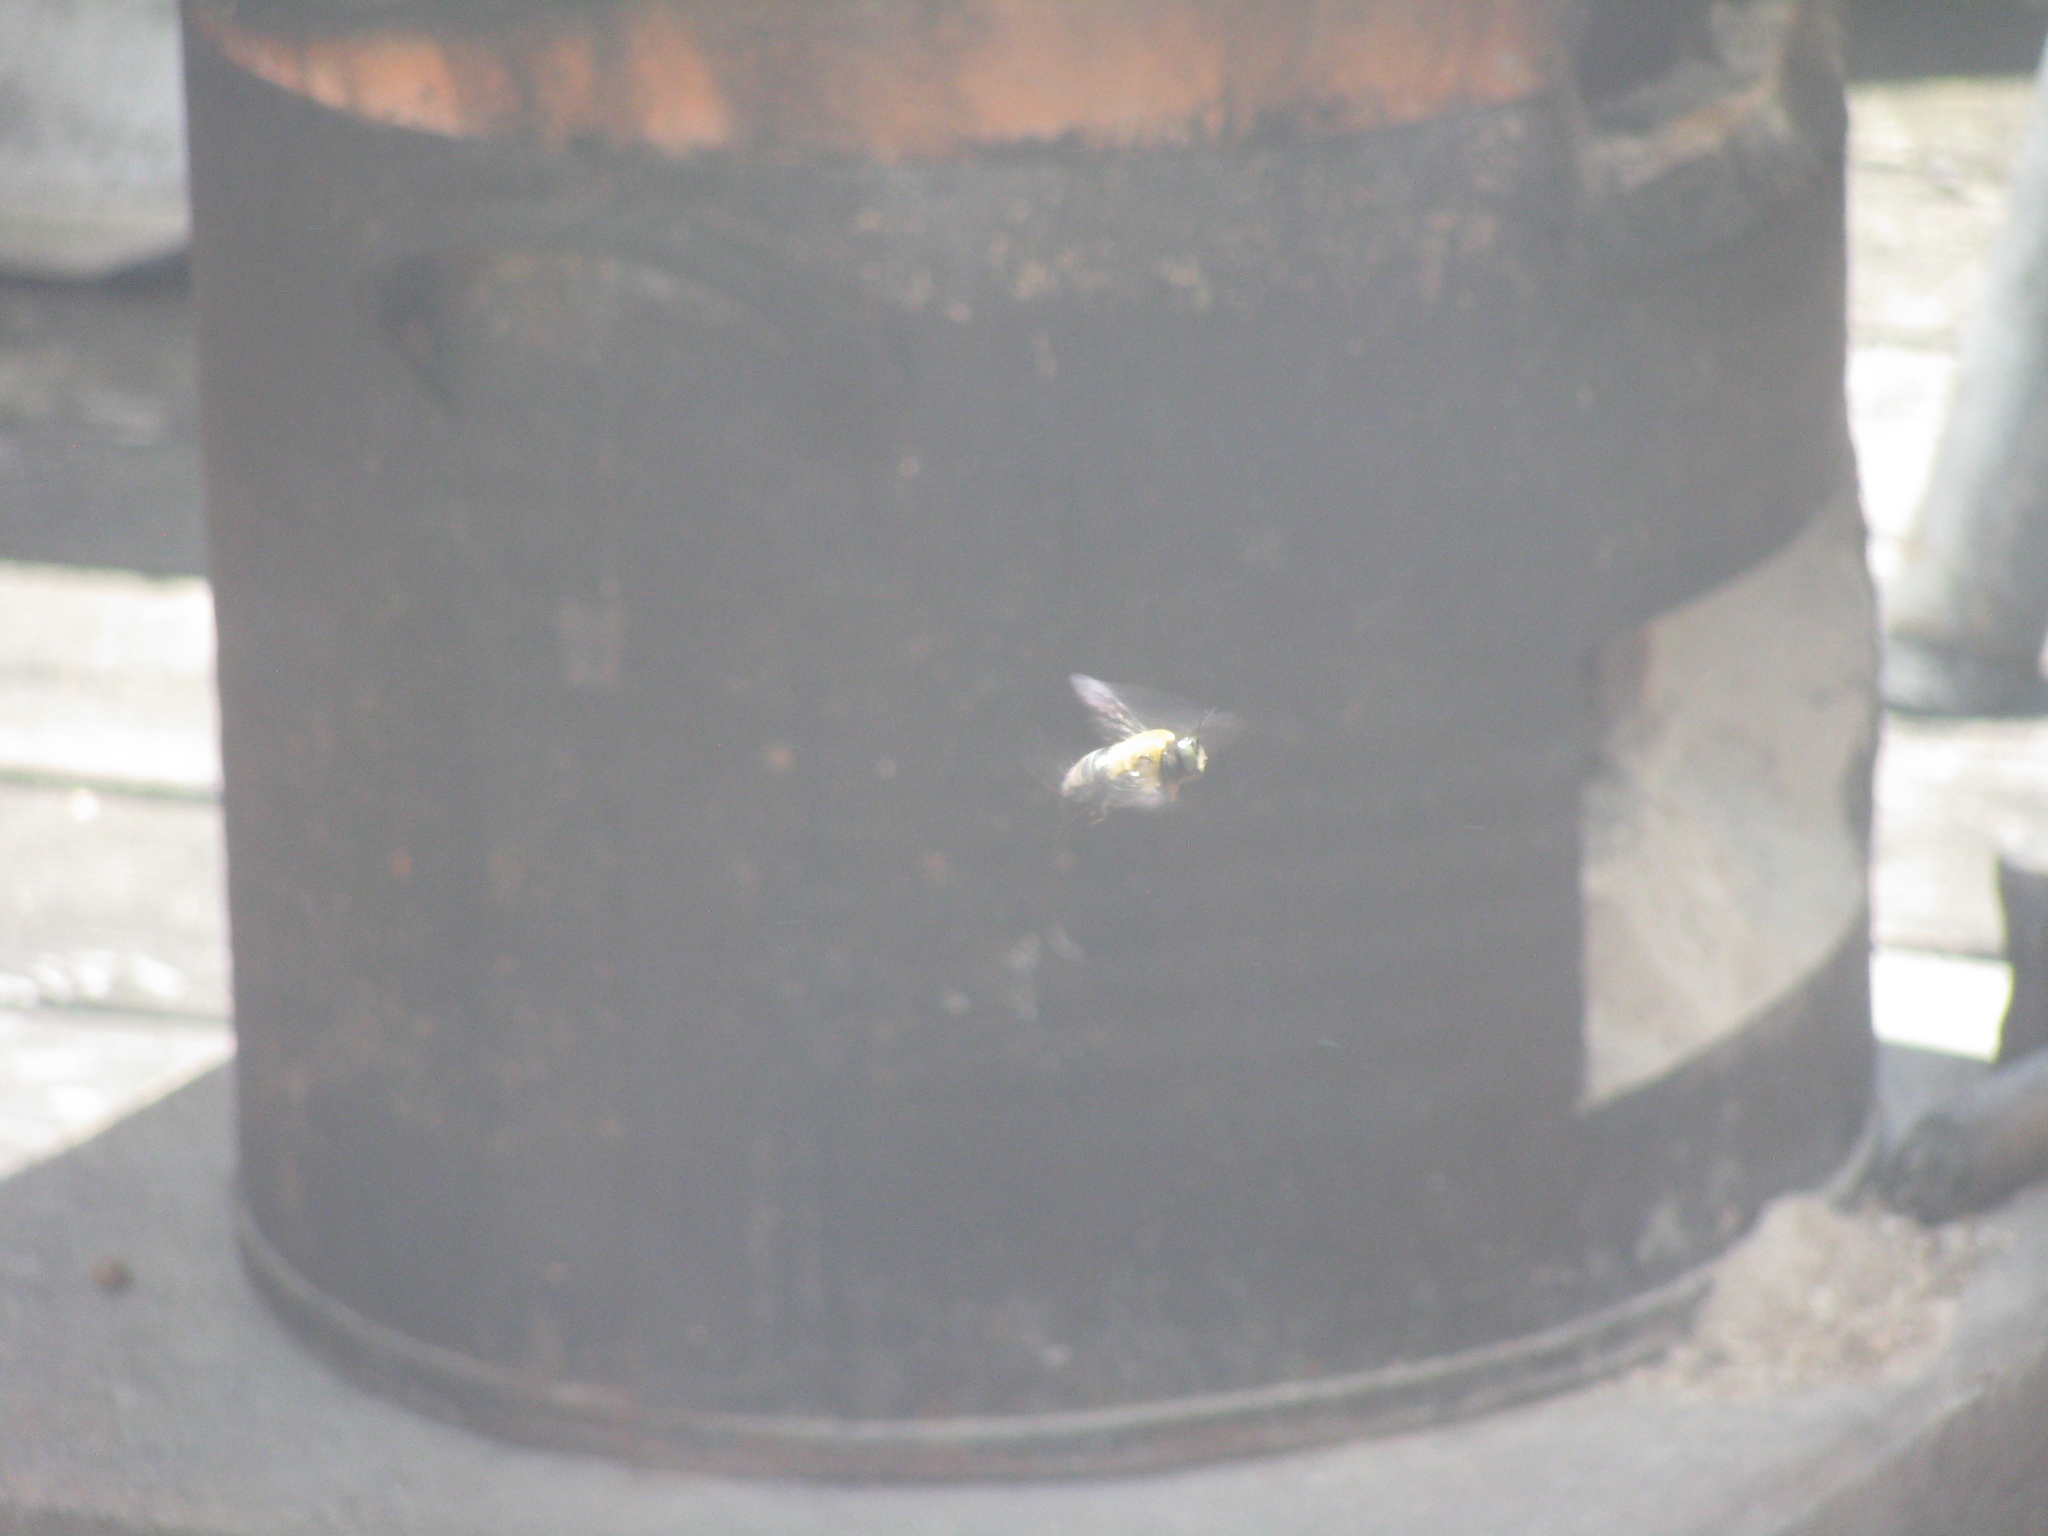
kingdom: Animalia
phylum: Arthropoda
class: Insecta
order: Hymenoptera
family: Apidae
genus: Xylocopa
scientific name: Xylocopa virginica
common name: Carpenter bee
